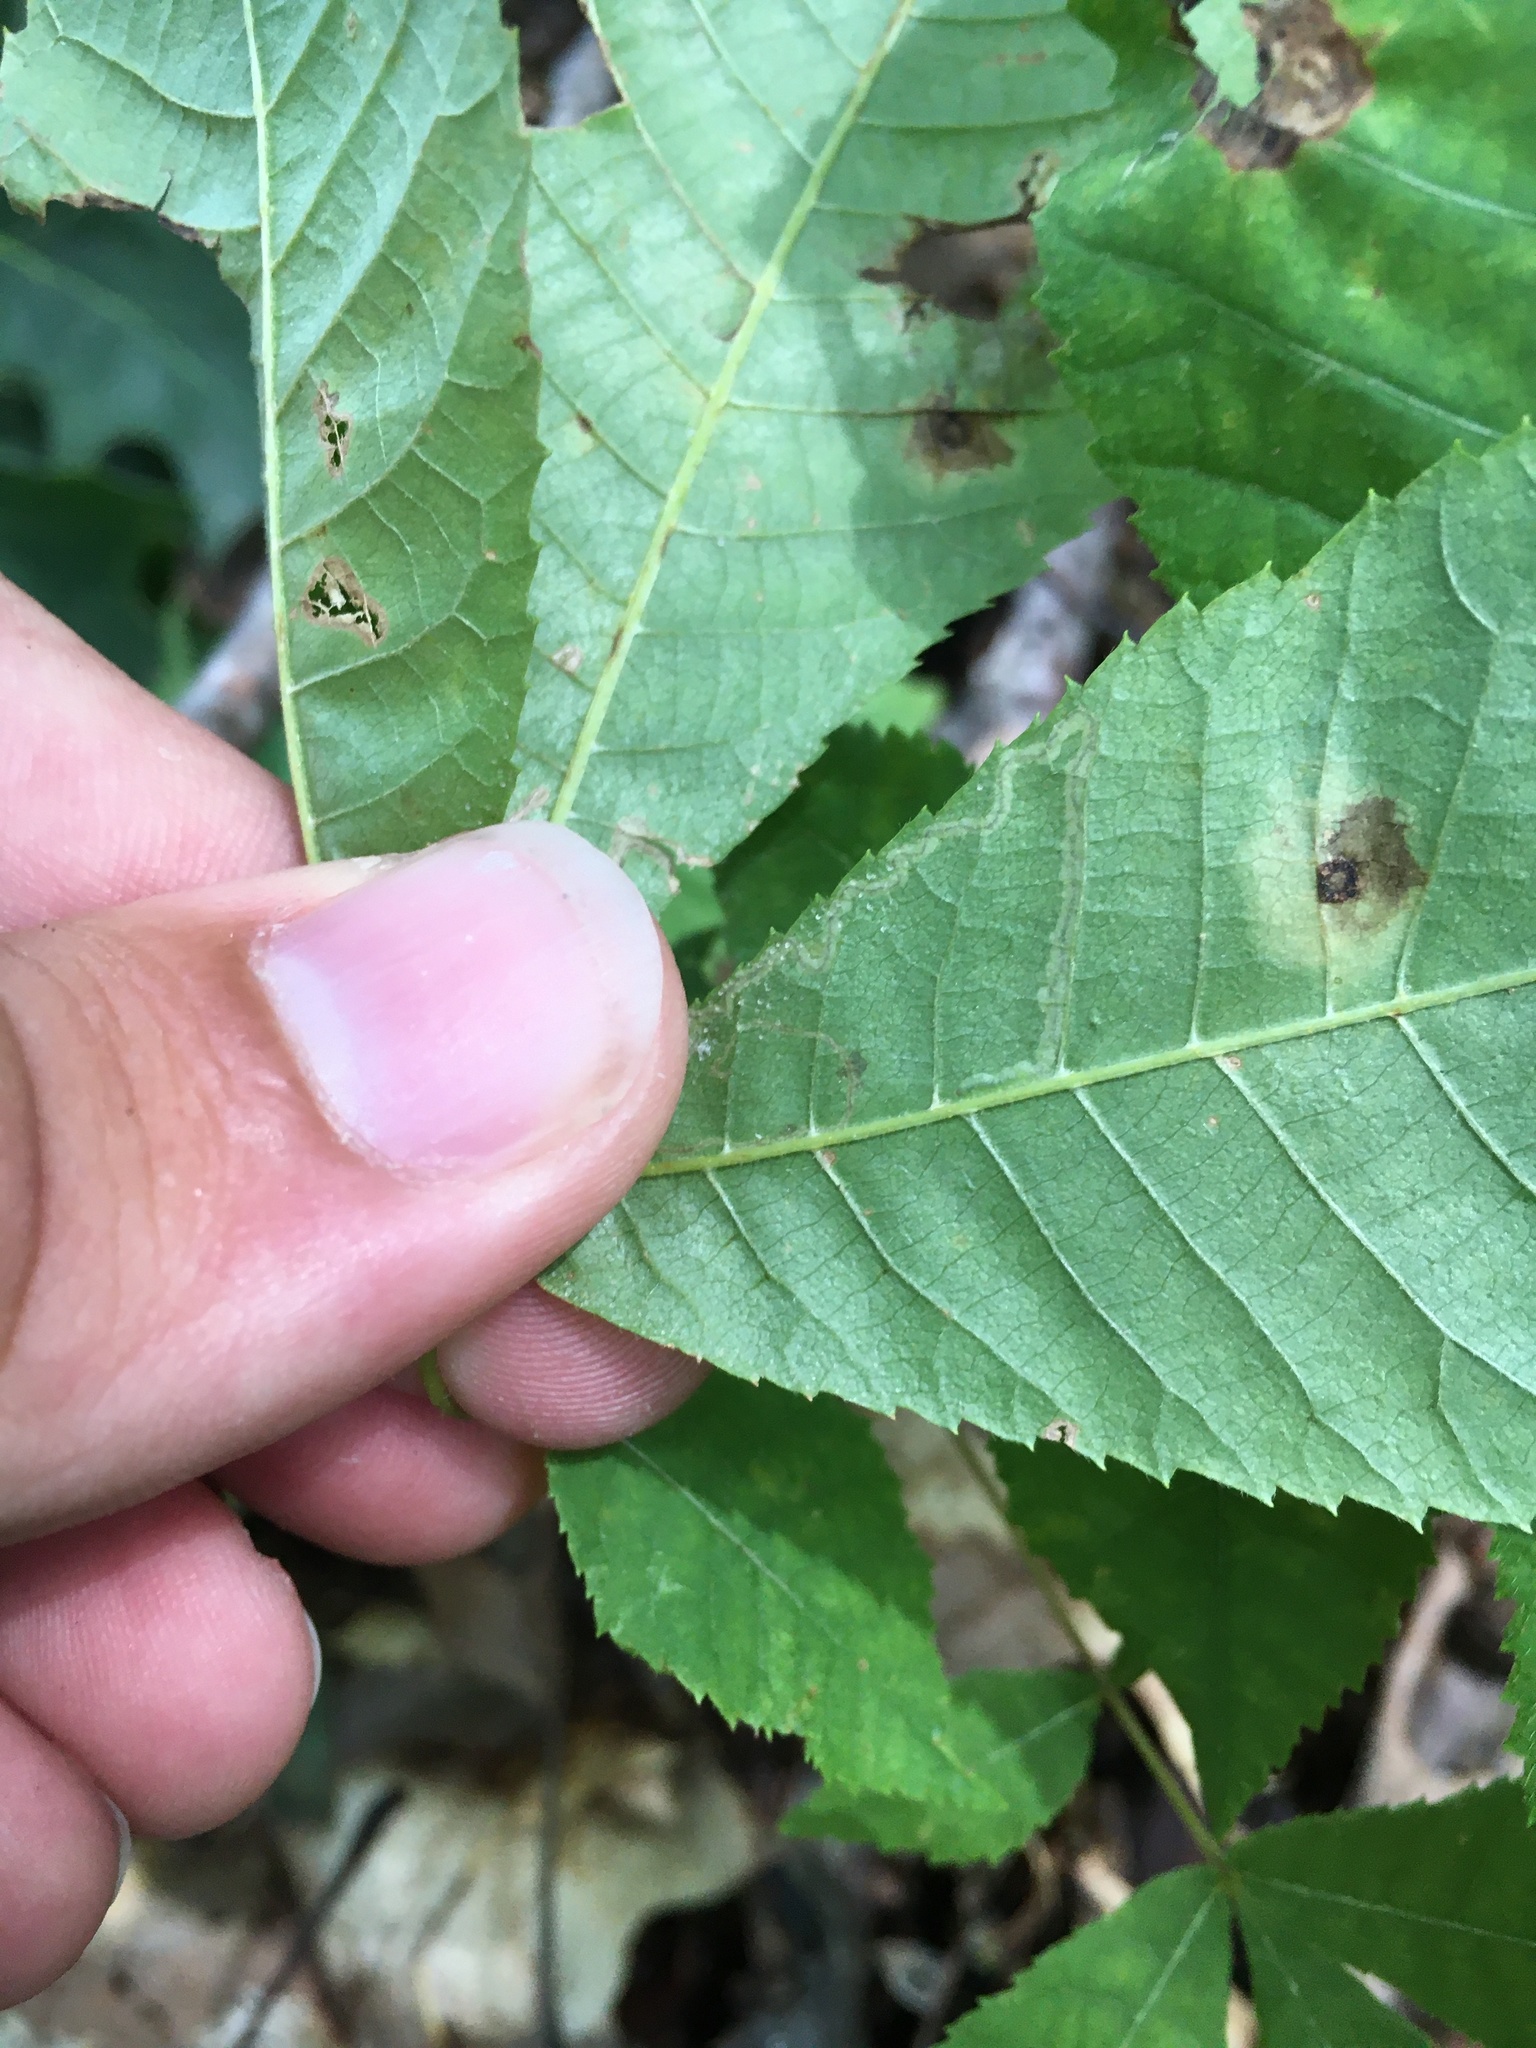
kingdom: Animalia
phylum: Arthropoda
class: Insecta
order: Lepidoptera
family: Nepticulidae
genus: Stigmella
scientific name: Stigmella caryaefoliella
